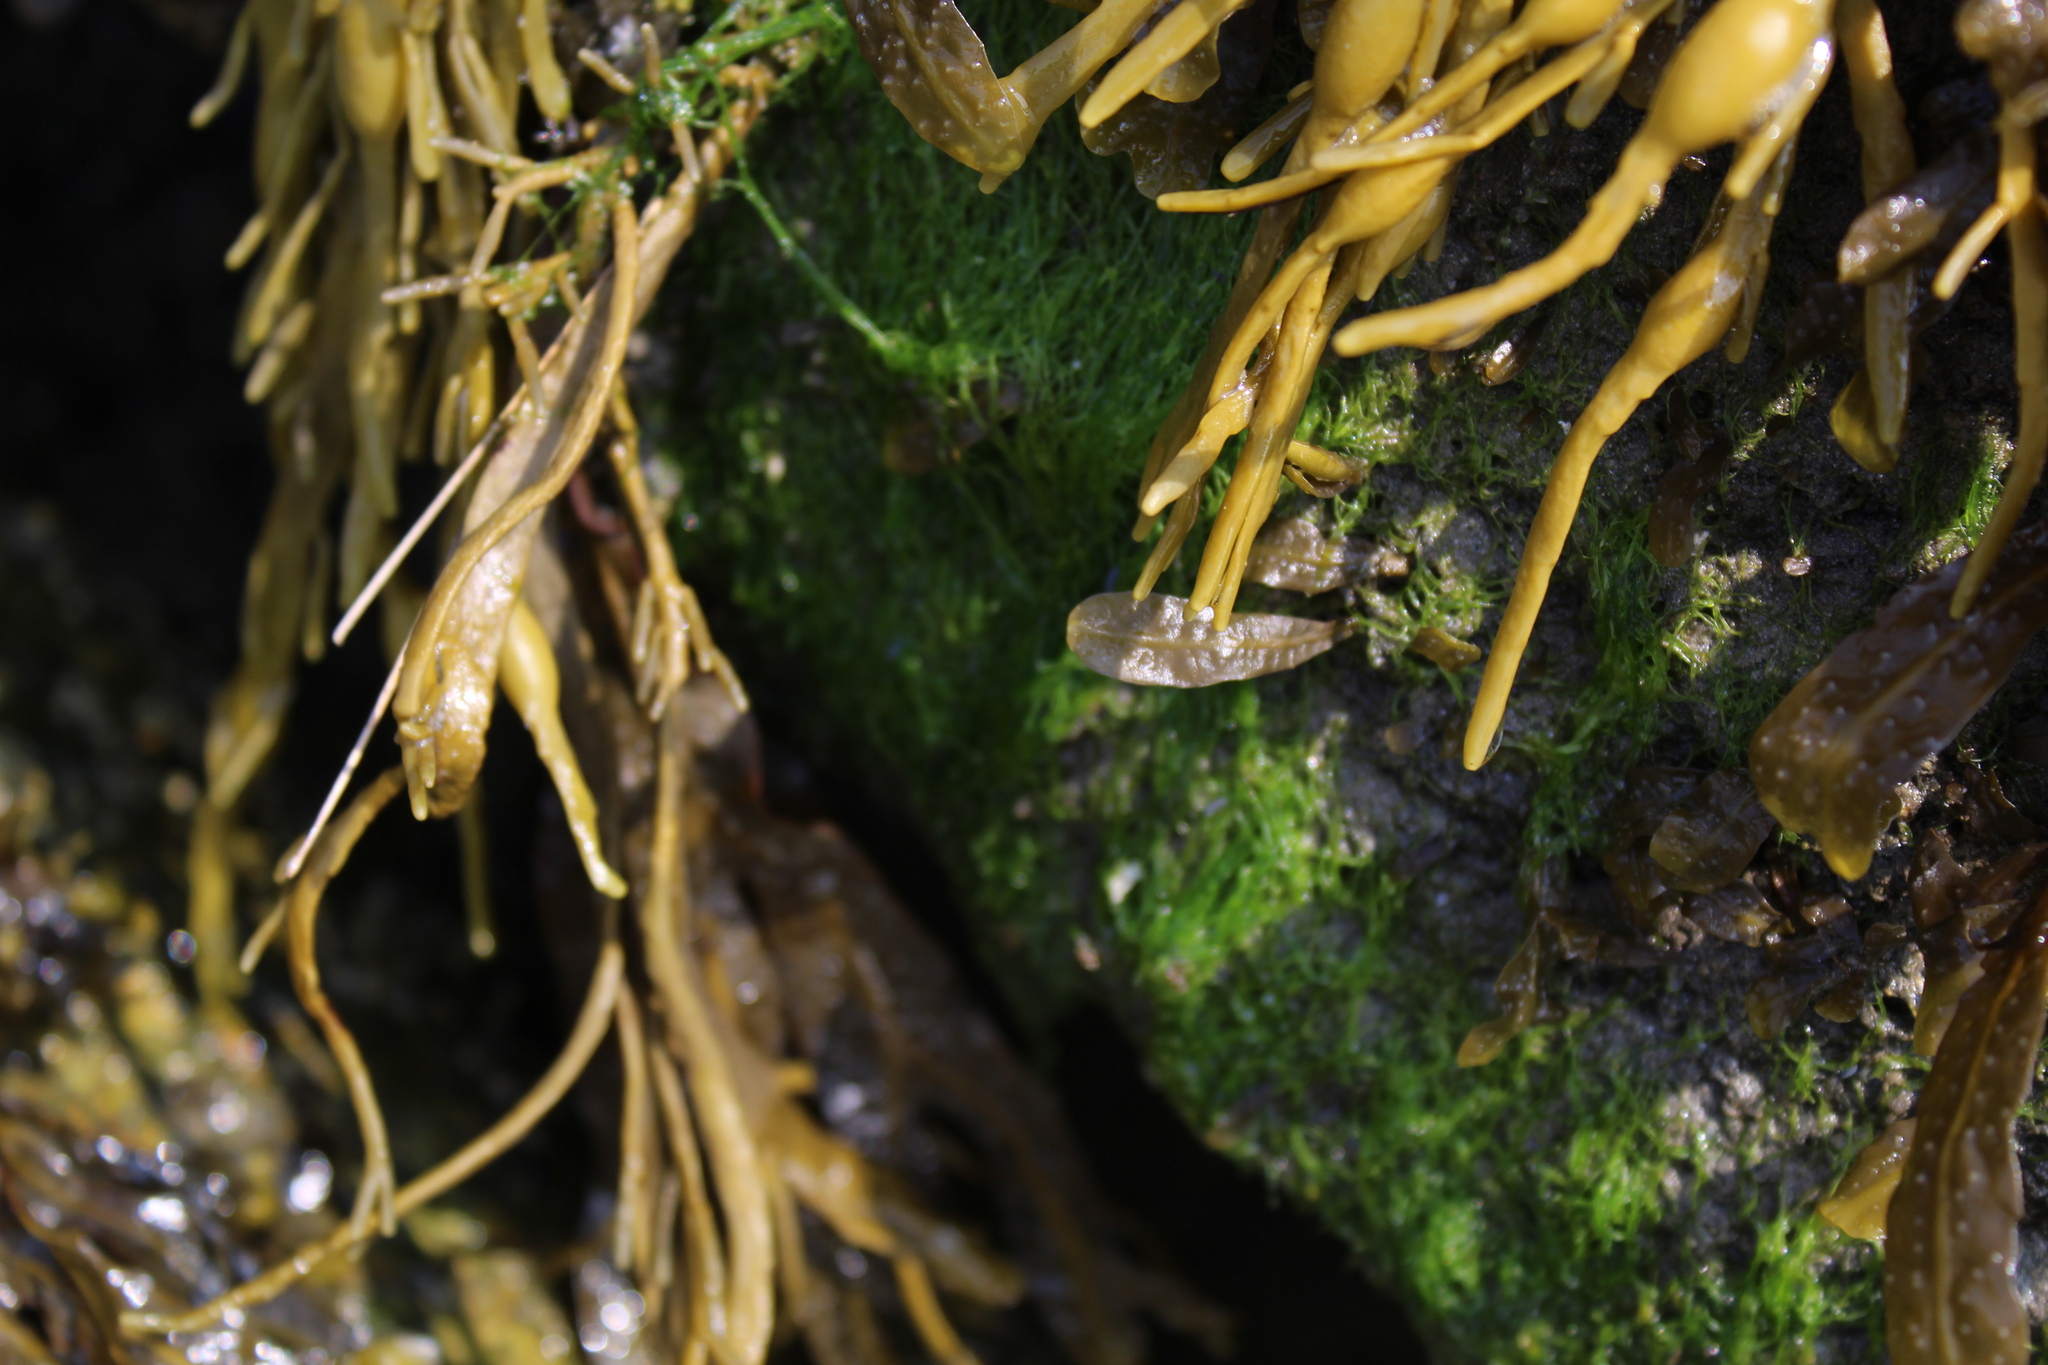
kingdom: Chromista
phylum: Ochrophyta
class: Phaeophyceae
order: Fucales
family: Fucaceae
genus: Ascophyllum
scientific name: Ascophyllum nodosum
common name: Knotted wrack
